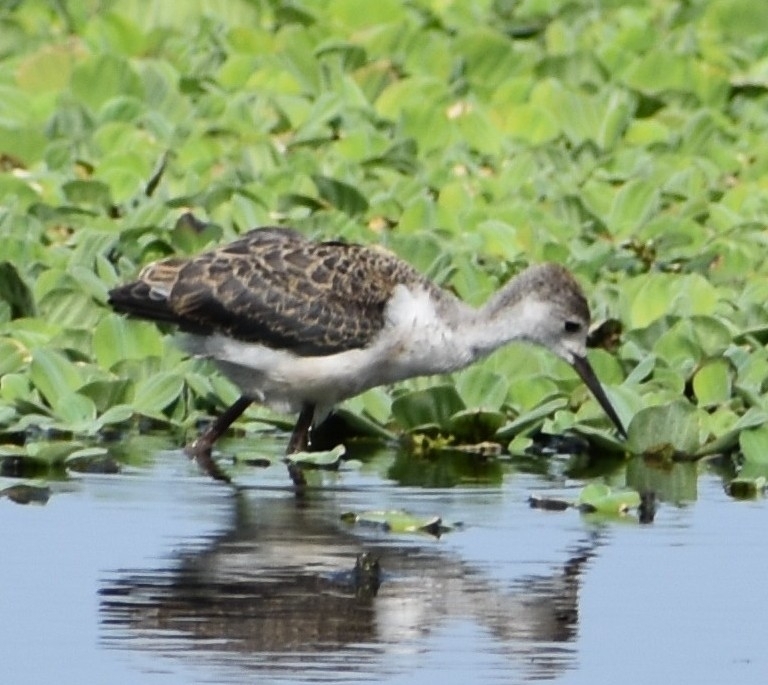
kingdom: Animalia
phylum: Chordata
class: Aves
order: Charadriiformes
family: Recurvirostridae
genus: Himantopus
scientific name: Himantopus himantopus
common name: Black-winged stilt
